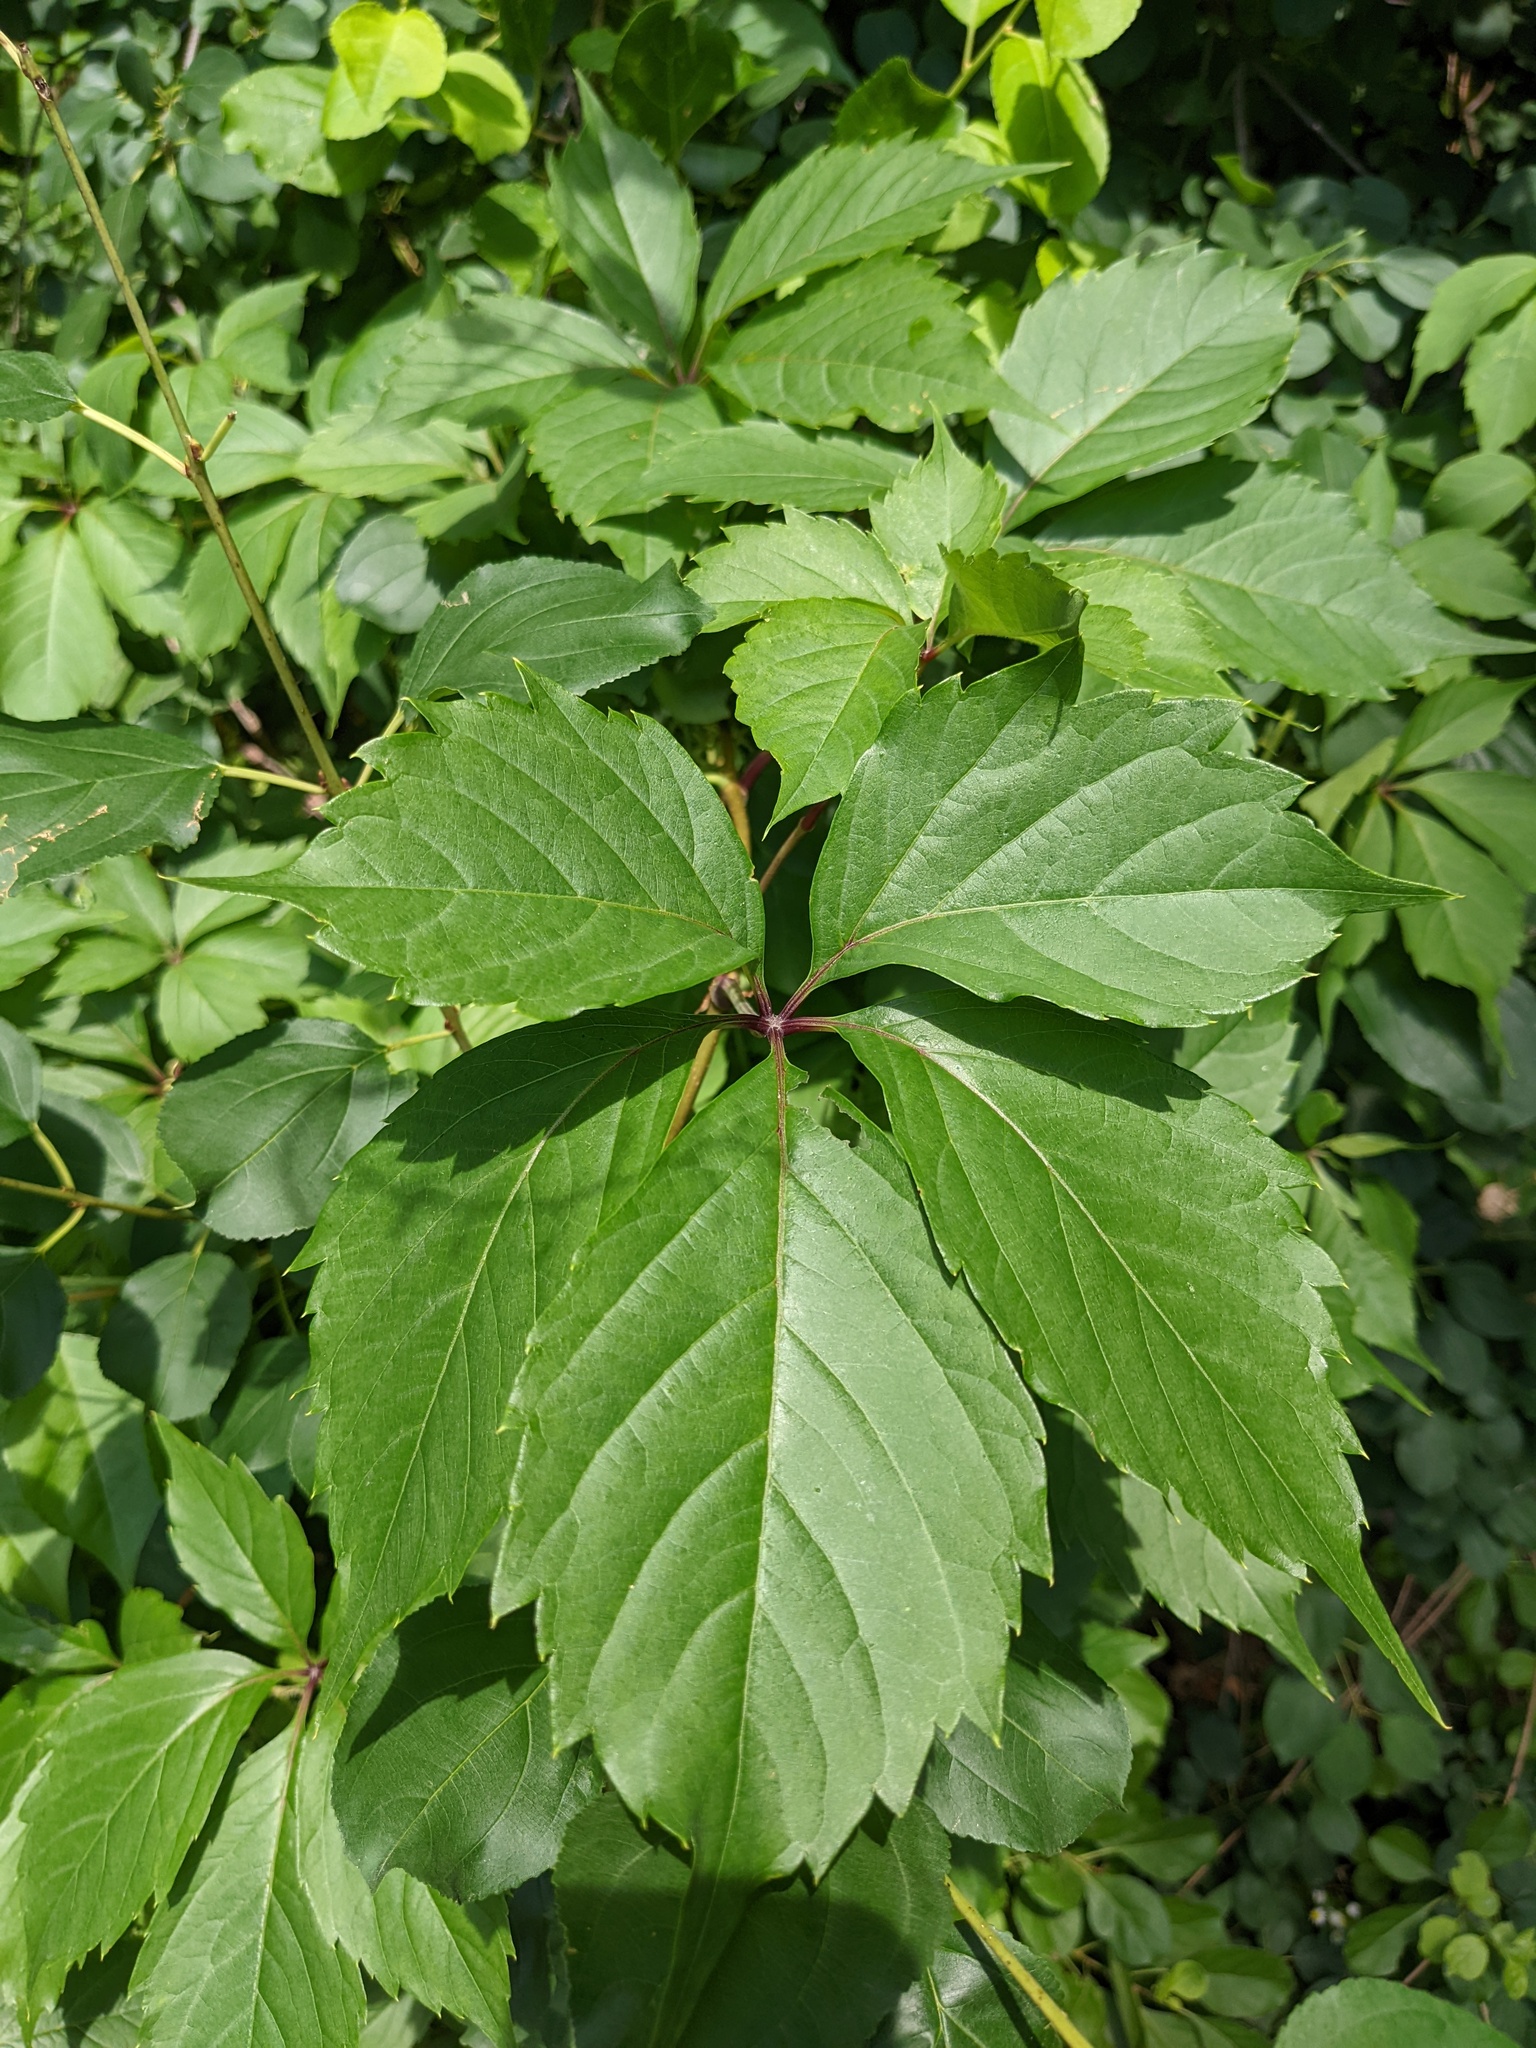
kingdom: Plantae
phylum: Tracheophyta
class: Magnoliopsida
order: Vitales
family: Vitaceae
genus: Parthenocissus
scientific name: Parthenocissus quinquefolia
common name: Virginia-creeper
